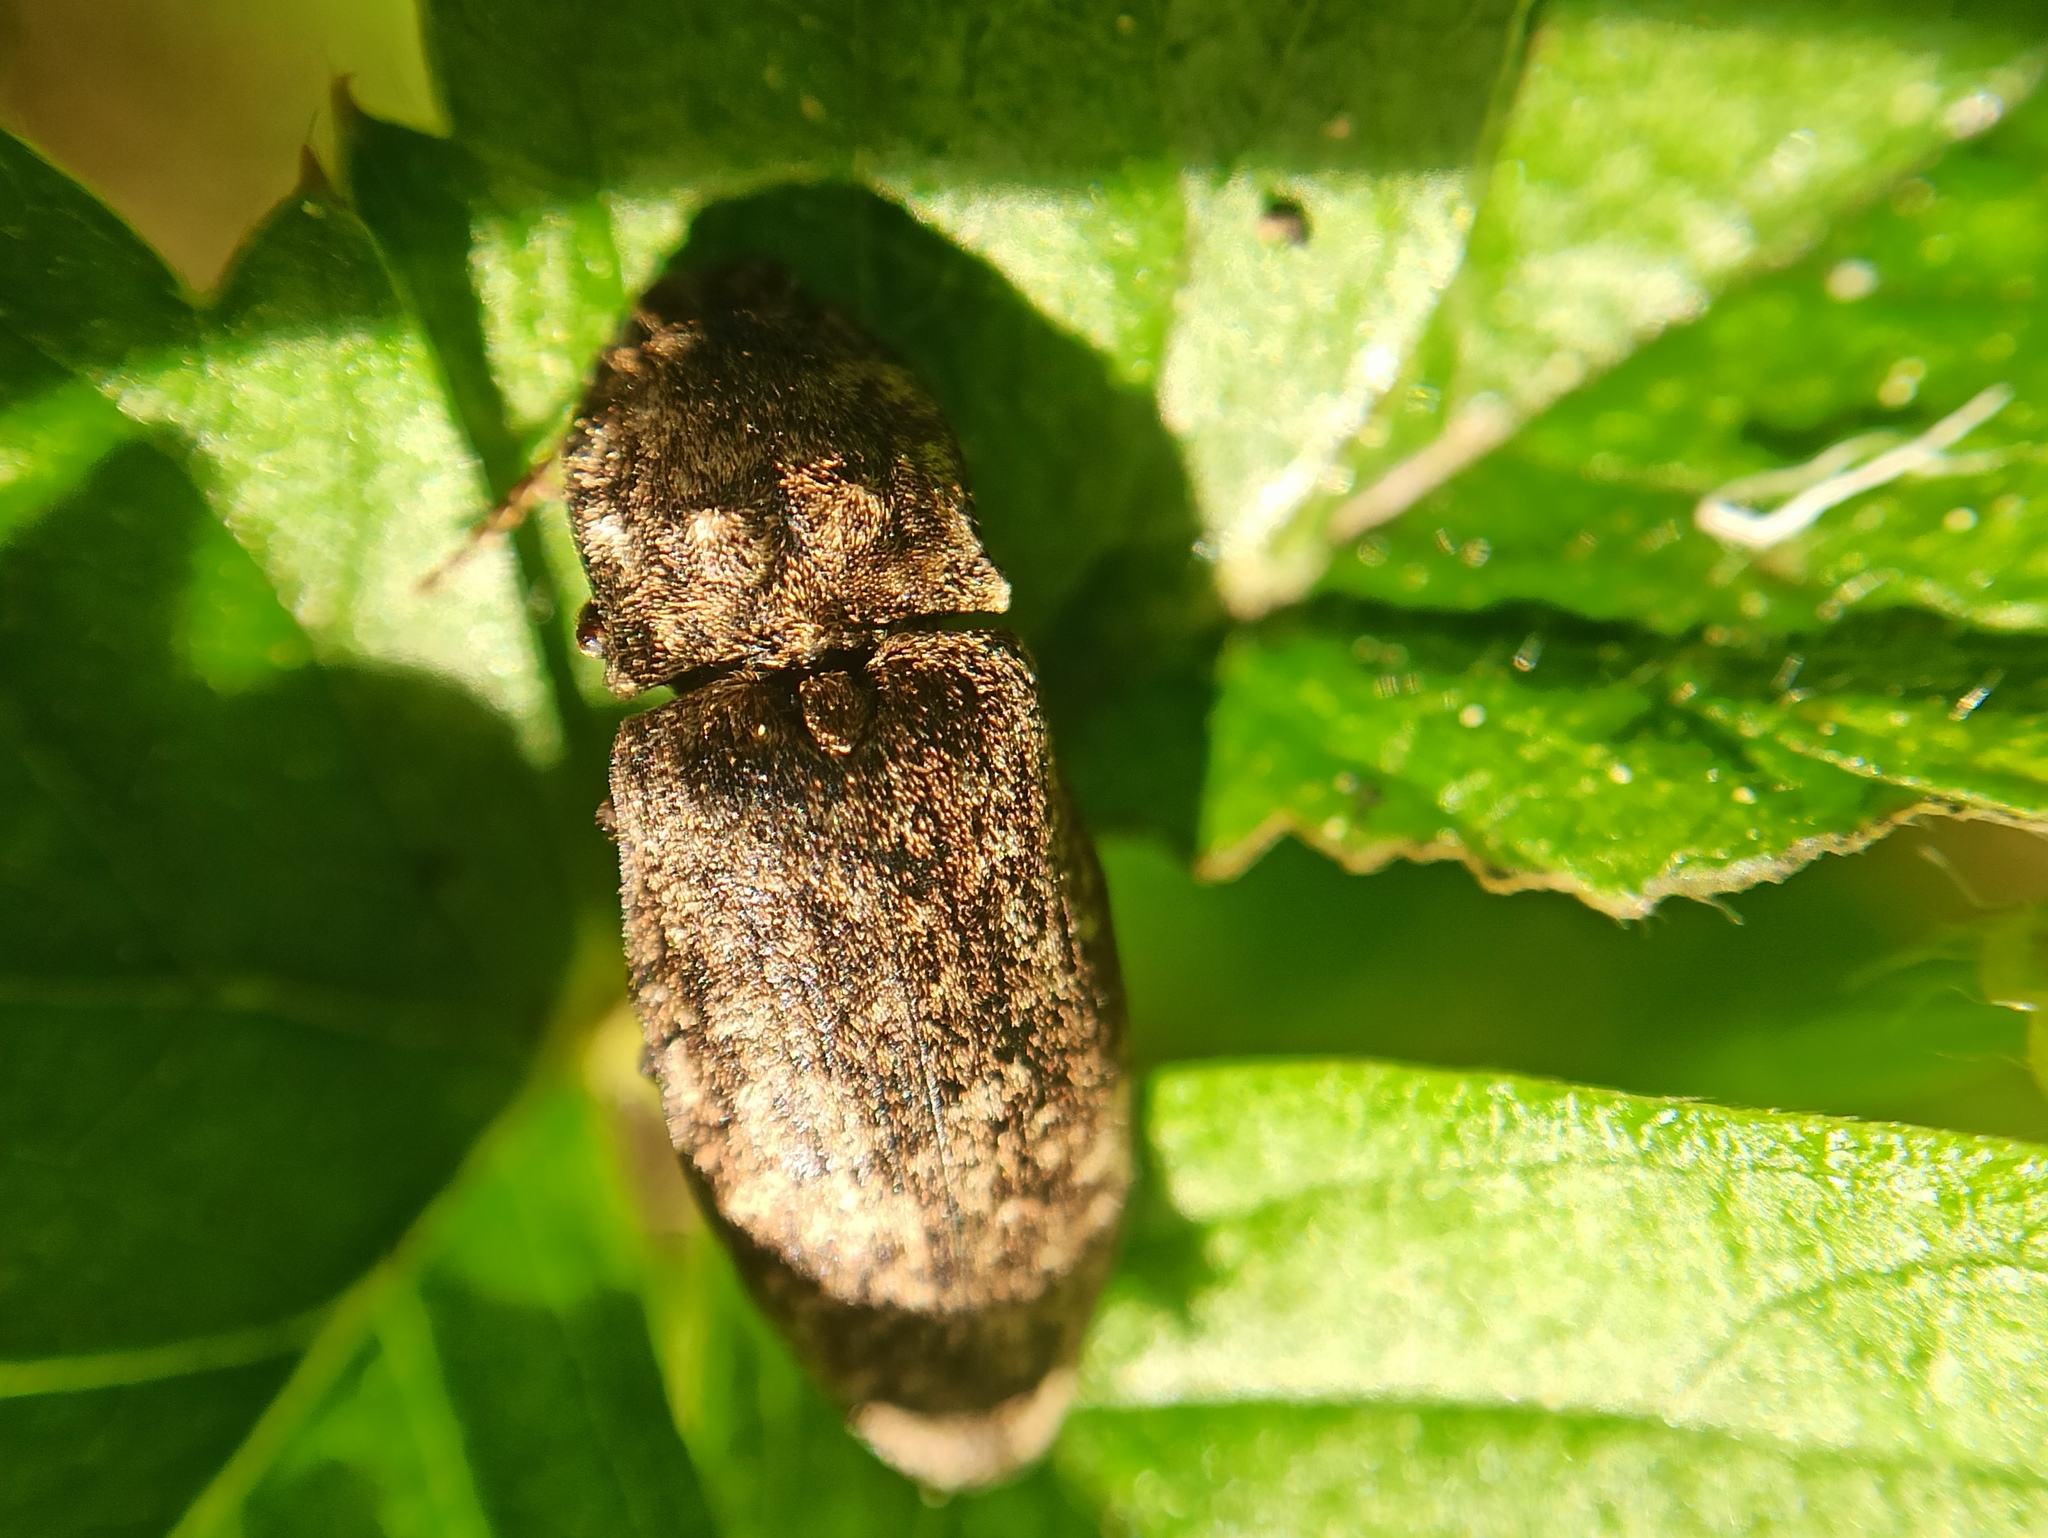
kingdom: Animalia
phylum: Arthropoda
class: Insecta
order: Coleoptera
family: Elateridae
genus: Agrypnus
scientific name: Agrypnus murinus
